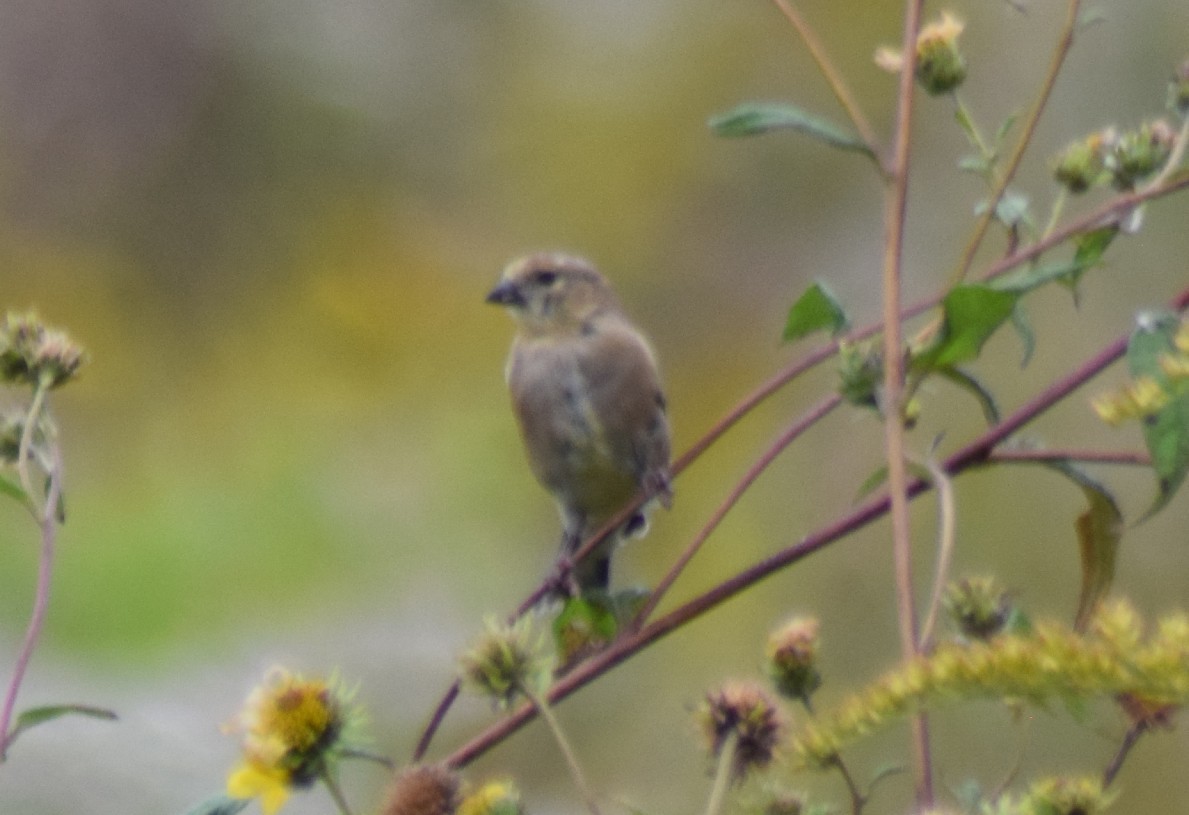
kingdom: Animalia
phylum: Chordata
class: Aves
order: Passeriformes
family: Fringillidae
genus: Spinus
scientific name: Spinus tristis
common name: American goldfinch
